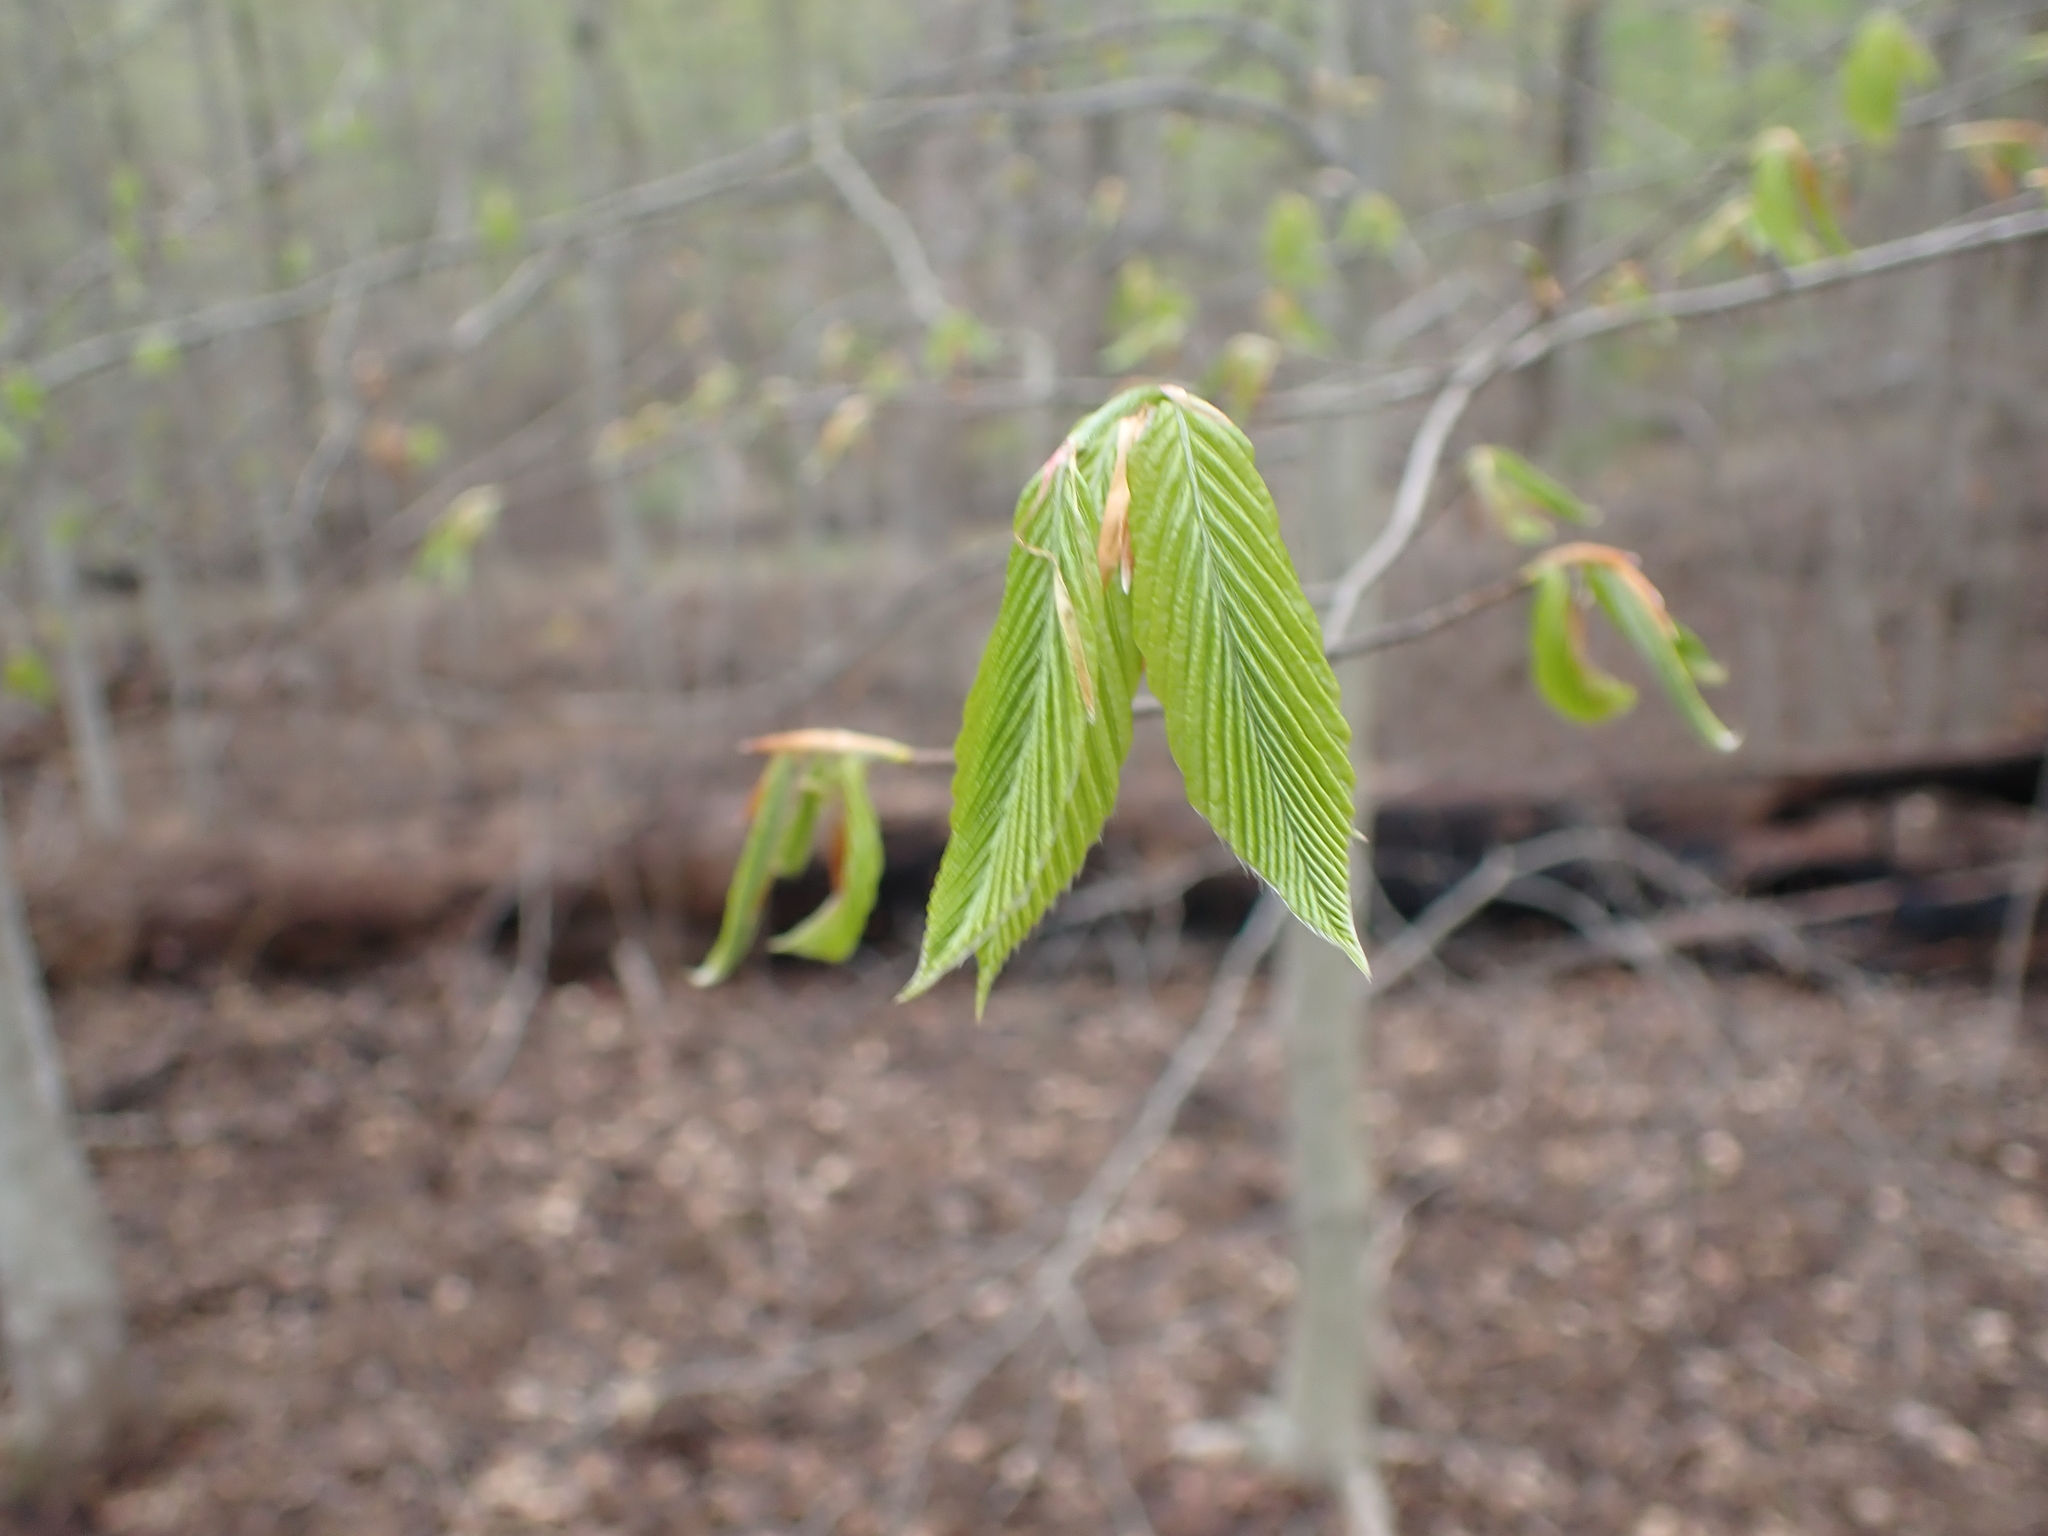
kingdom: Plantae
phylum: Tracheophyta
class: Magnoliopsida
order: Fagales
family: Fagaceae
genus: Fagus
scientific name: Fagus grandifolia
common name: American beech
